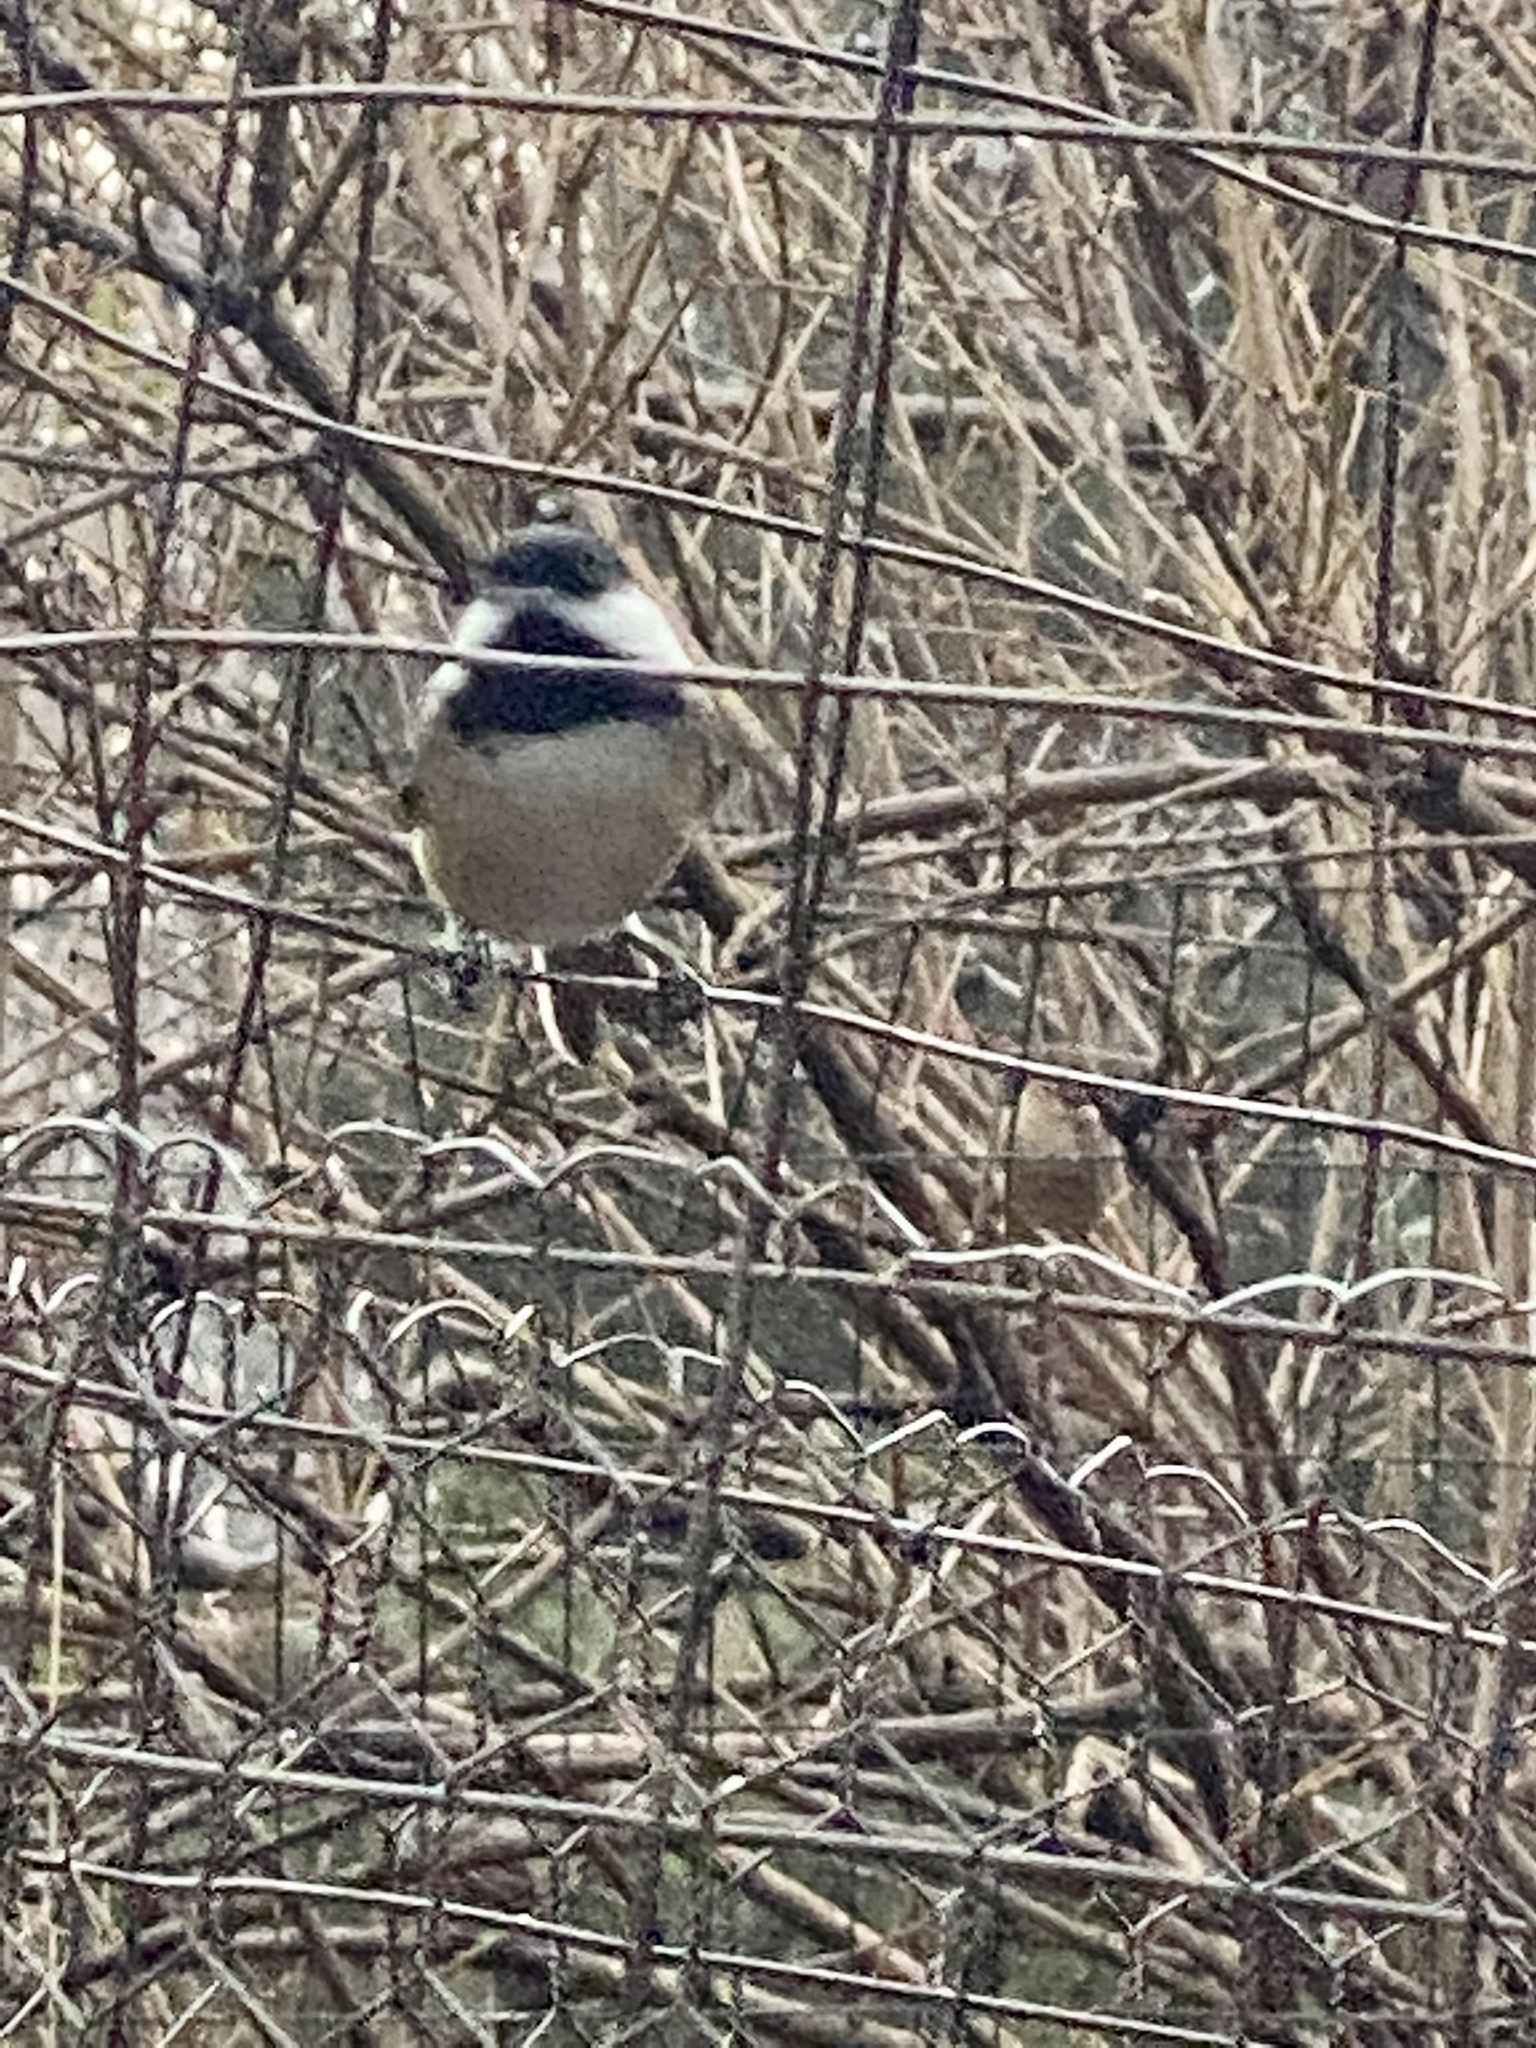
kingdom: Animalia
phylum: Chordata
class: Aves
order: Passeriformes
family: Paridae
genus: Poecile
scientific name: Poecile atricapillus
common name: Black-capped chickadee
